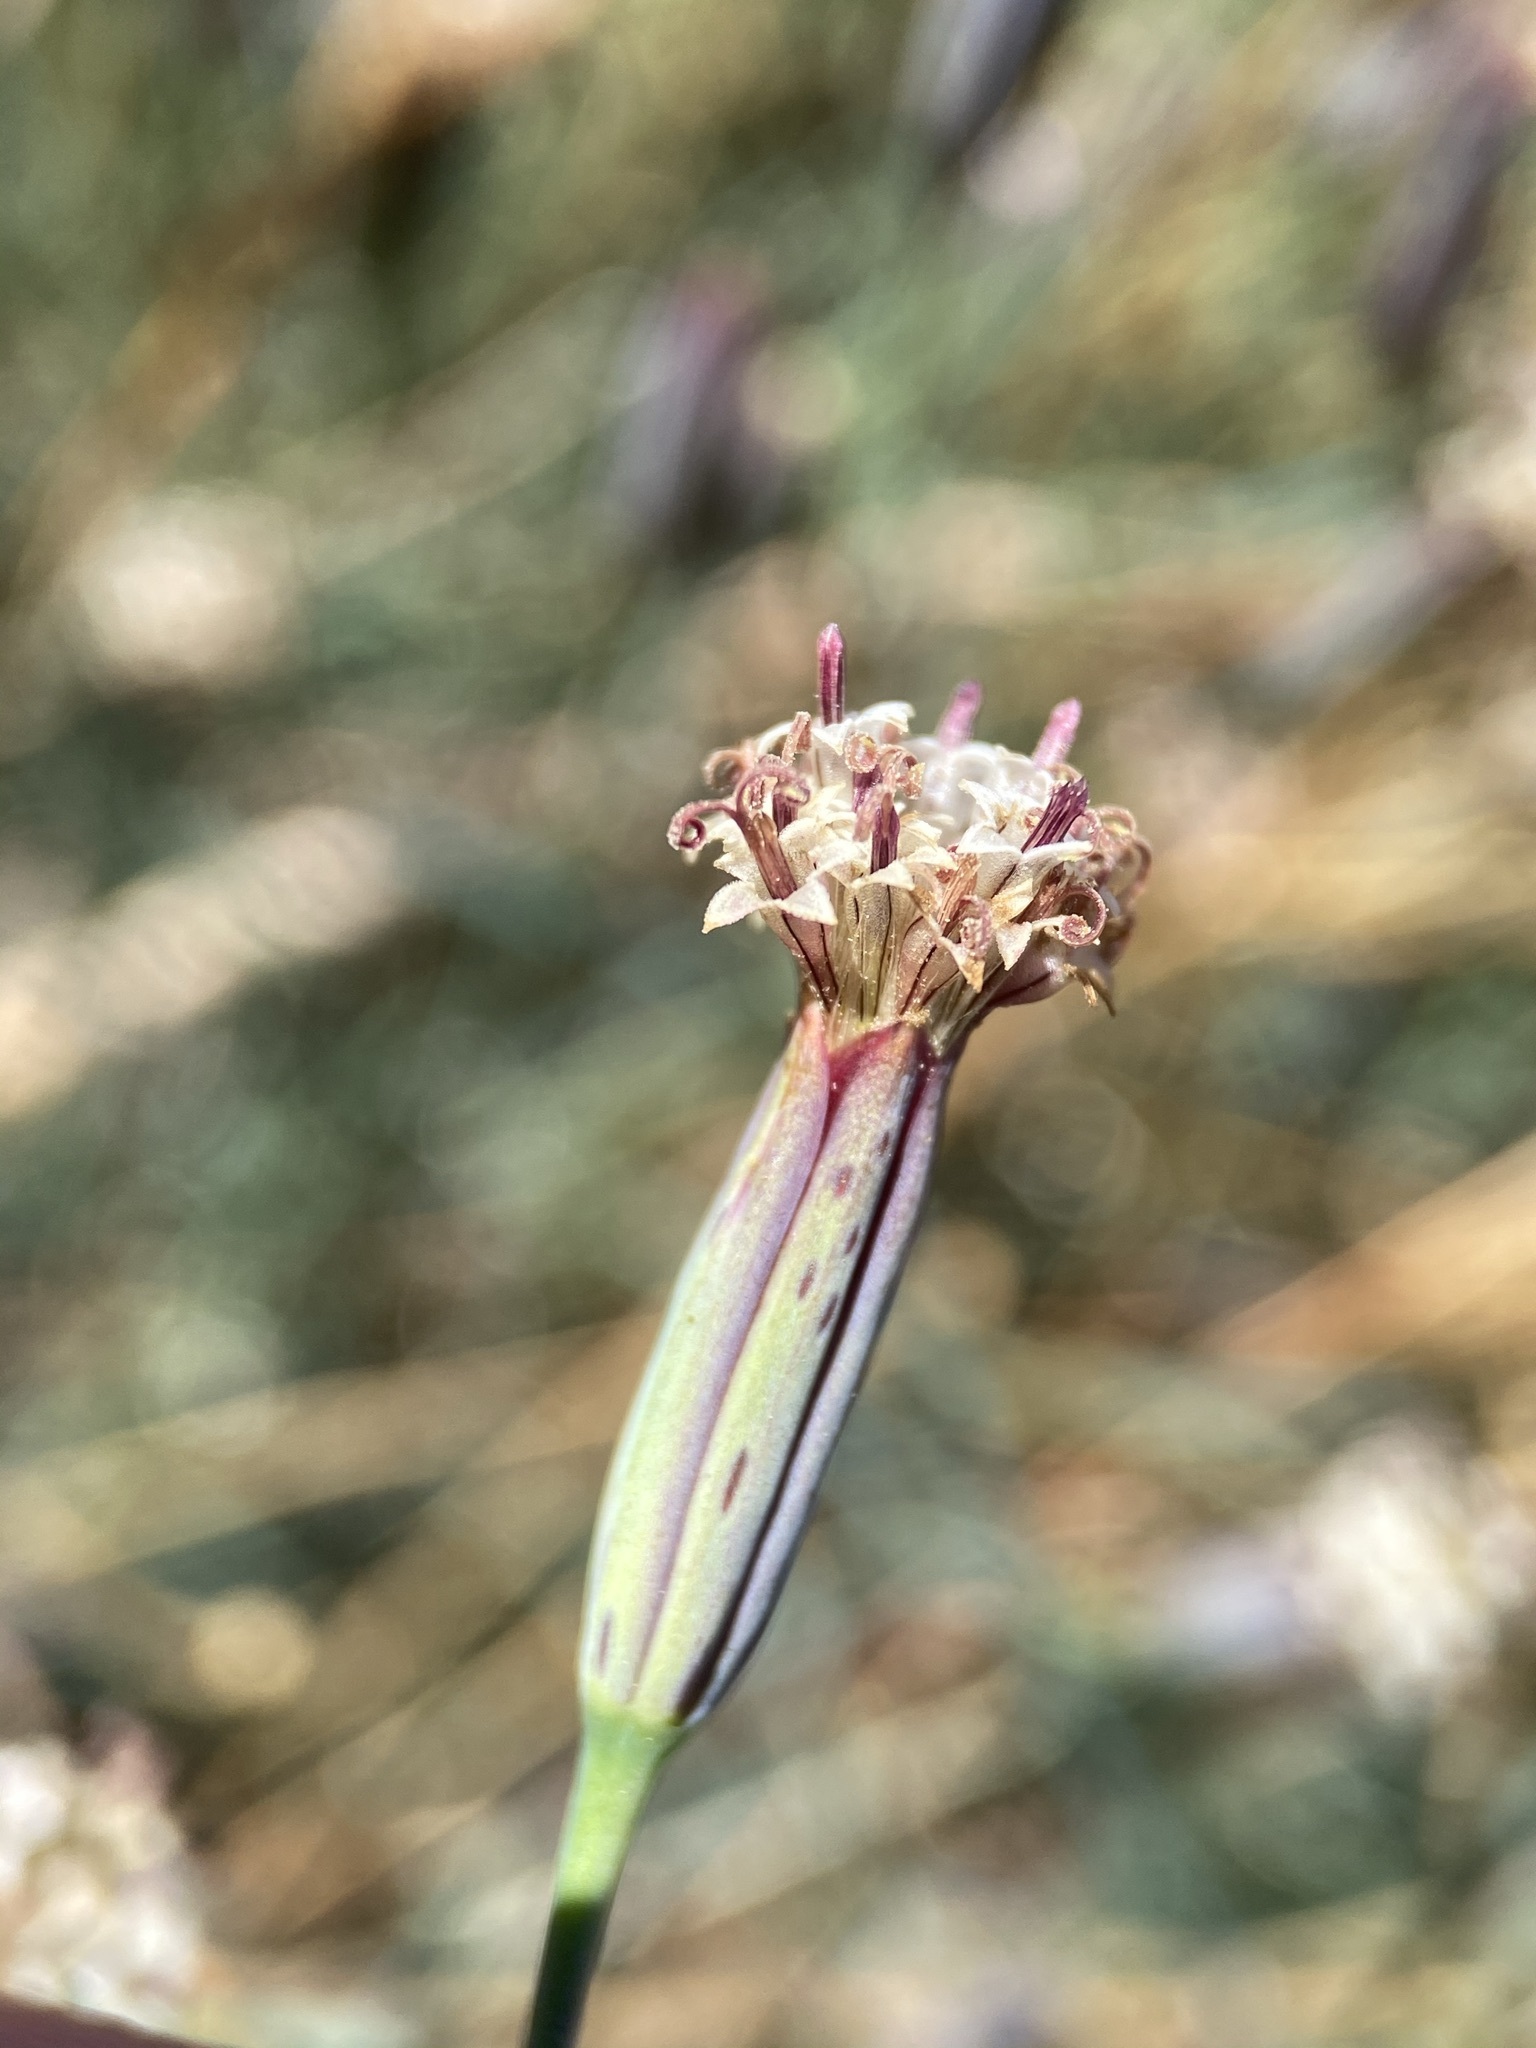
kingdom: Plantae
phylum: Tracheophyta
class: Magnoliopsida
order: Asterales
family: Asteraceae
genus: Porophyllum
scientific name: Porophyllum gracile
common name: Odora
